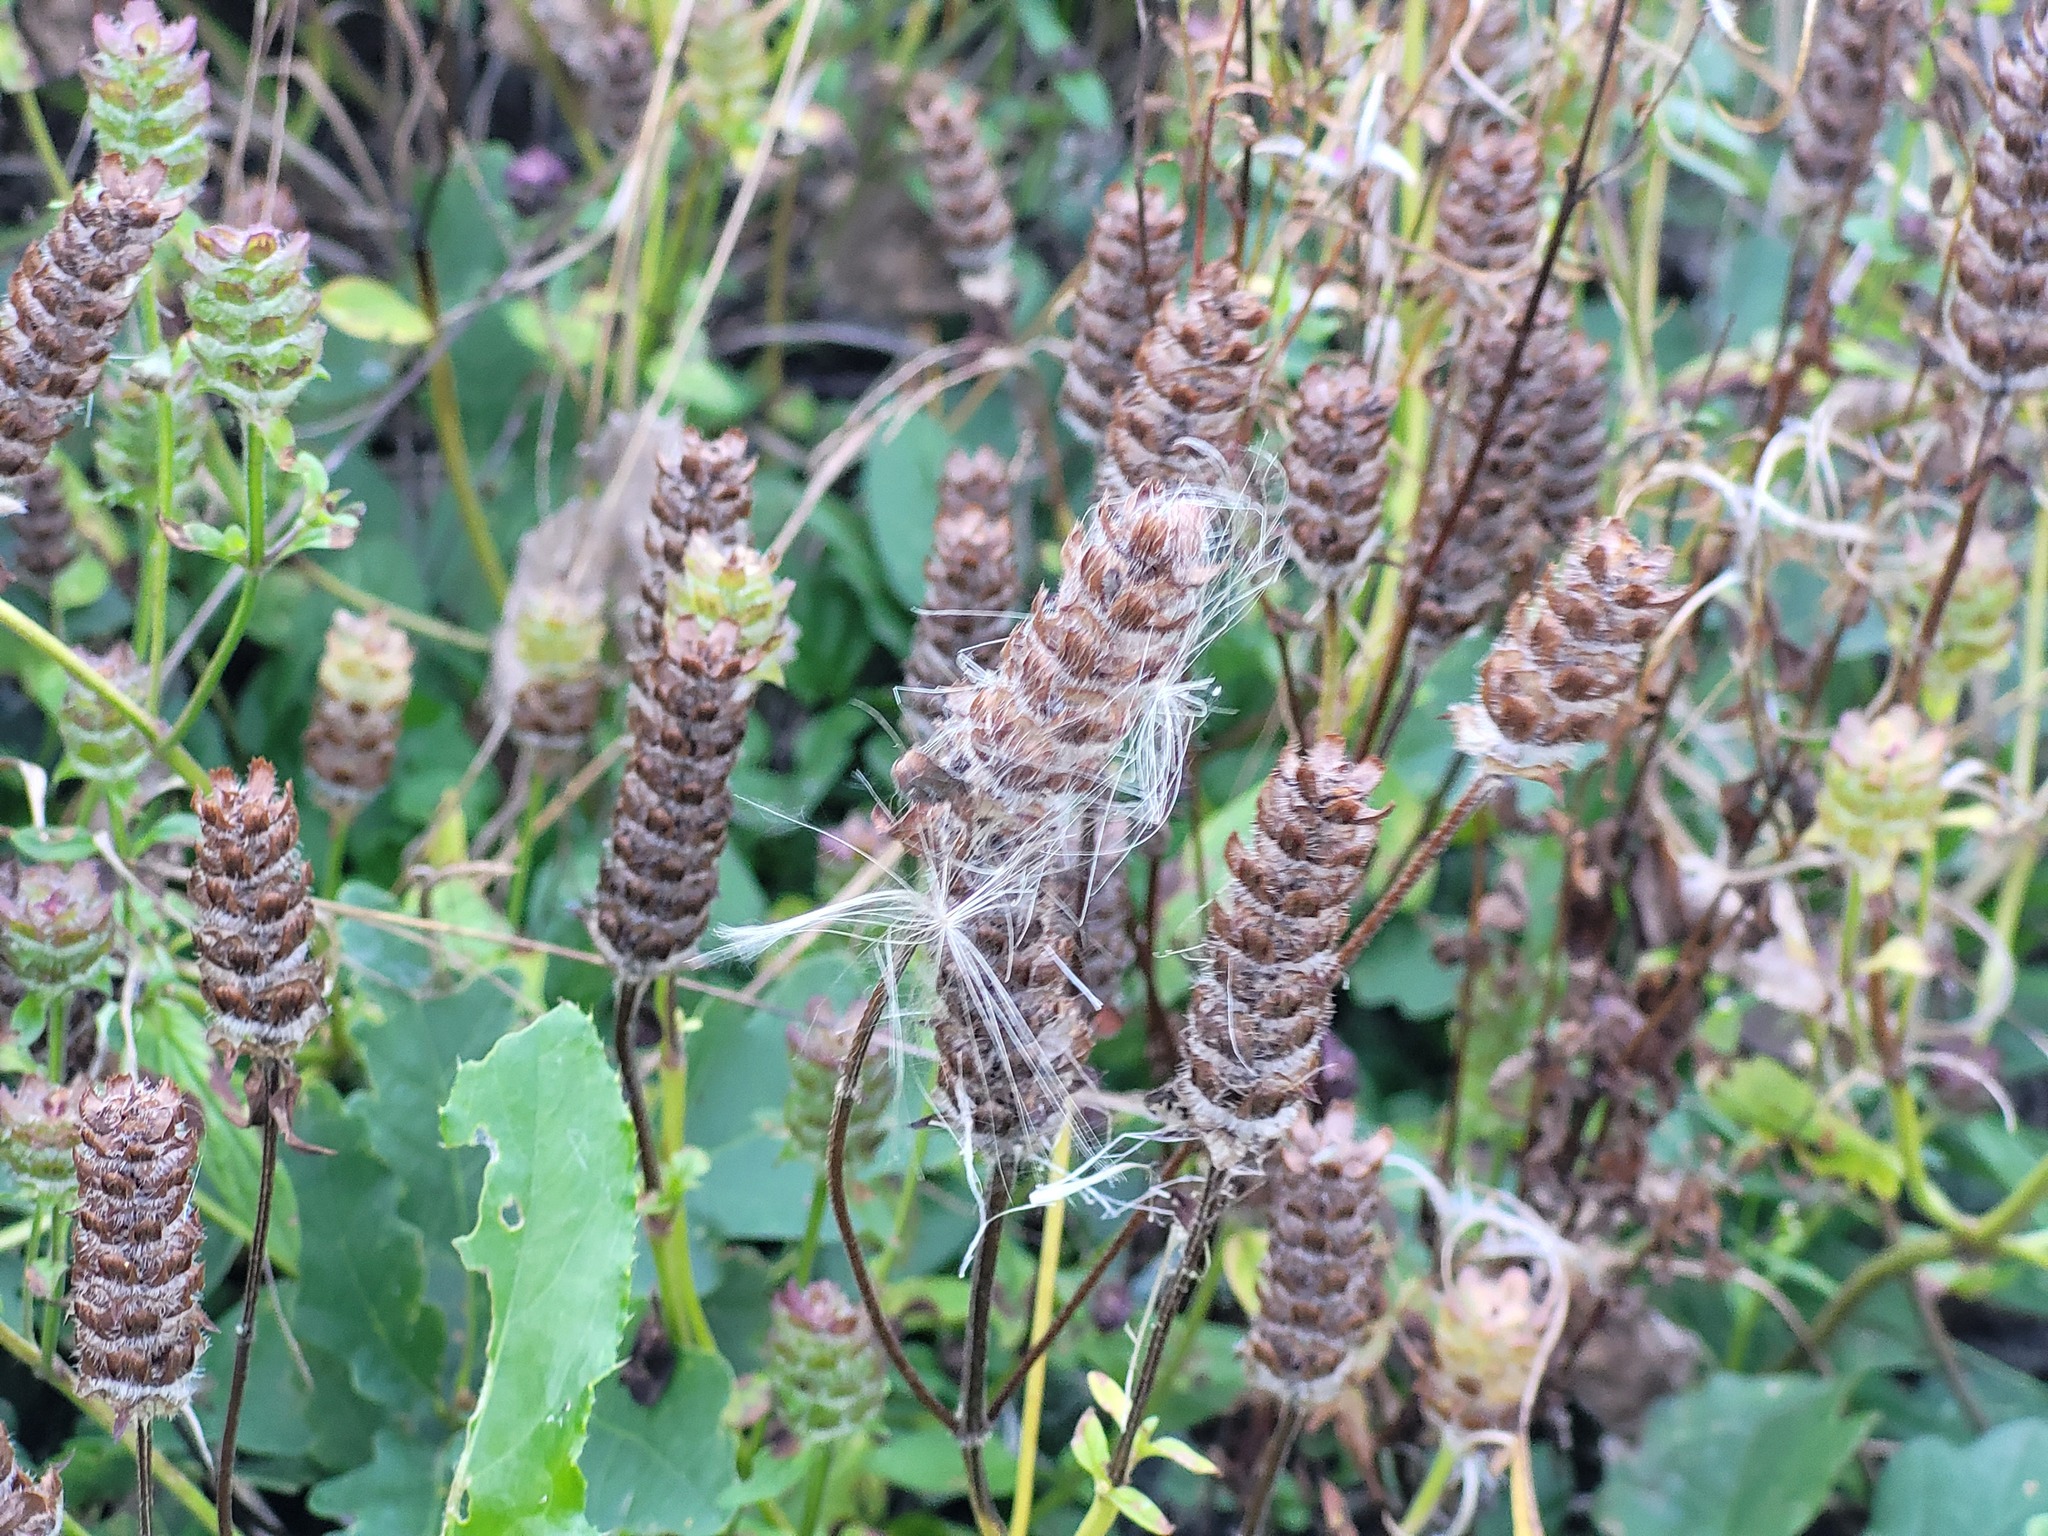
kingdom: Plantae
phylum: Tracheophyta
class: Magnoliopsida
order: Lamiales
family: Lamiaceae
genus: Prunella
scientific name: Prunella vulgaris
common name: Heal-all
